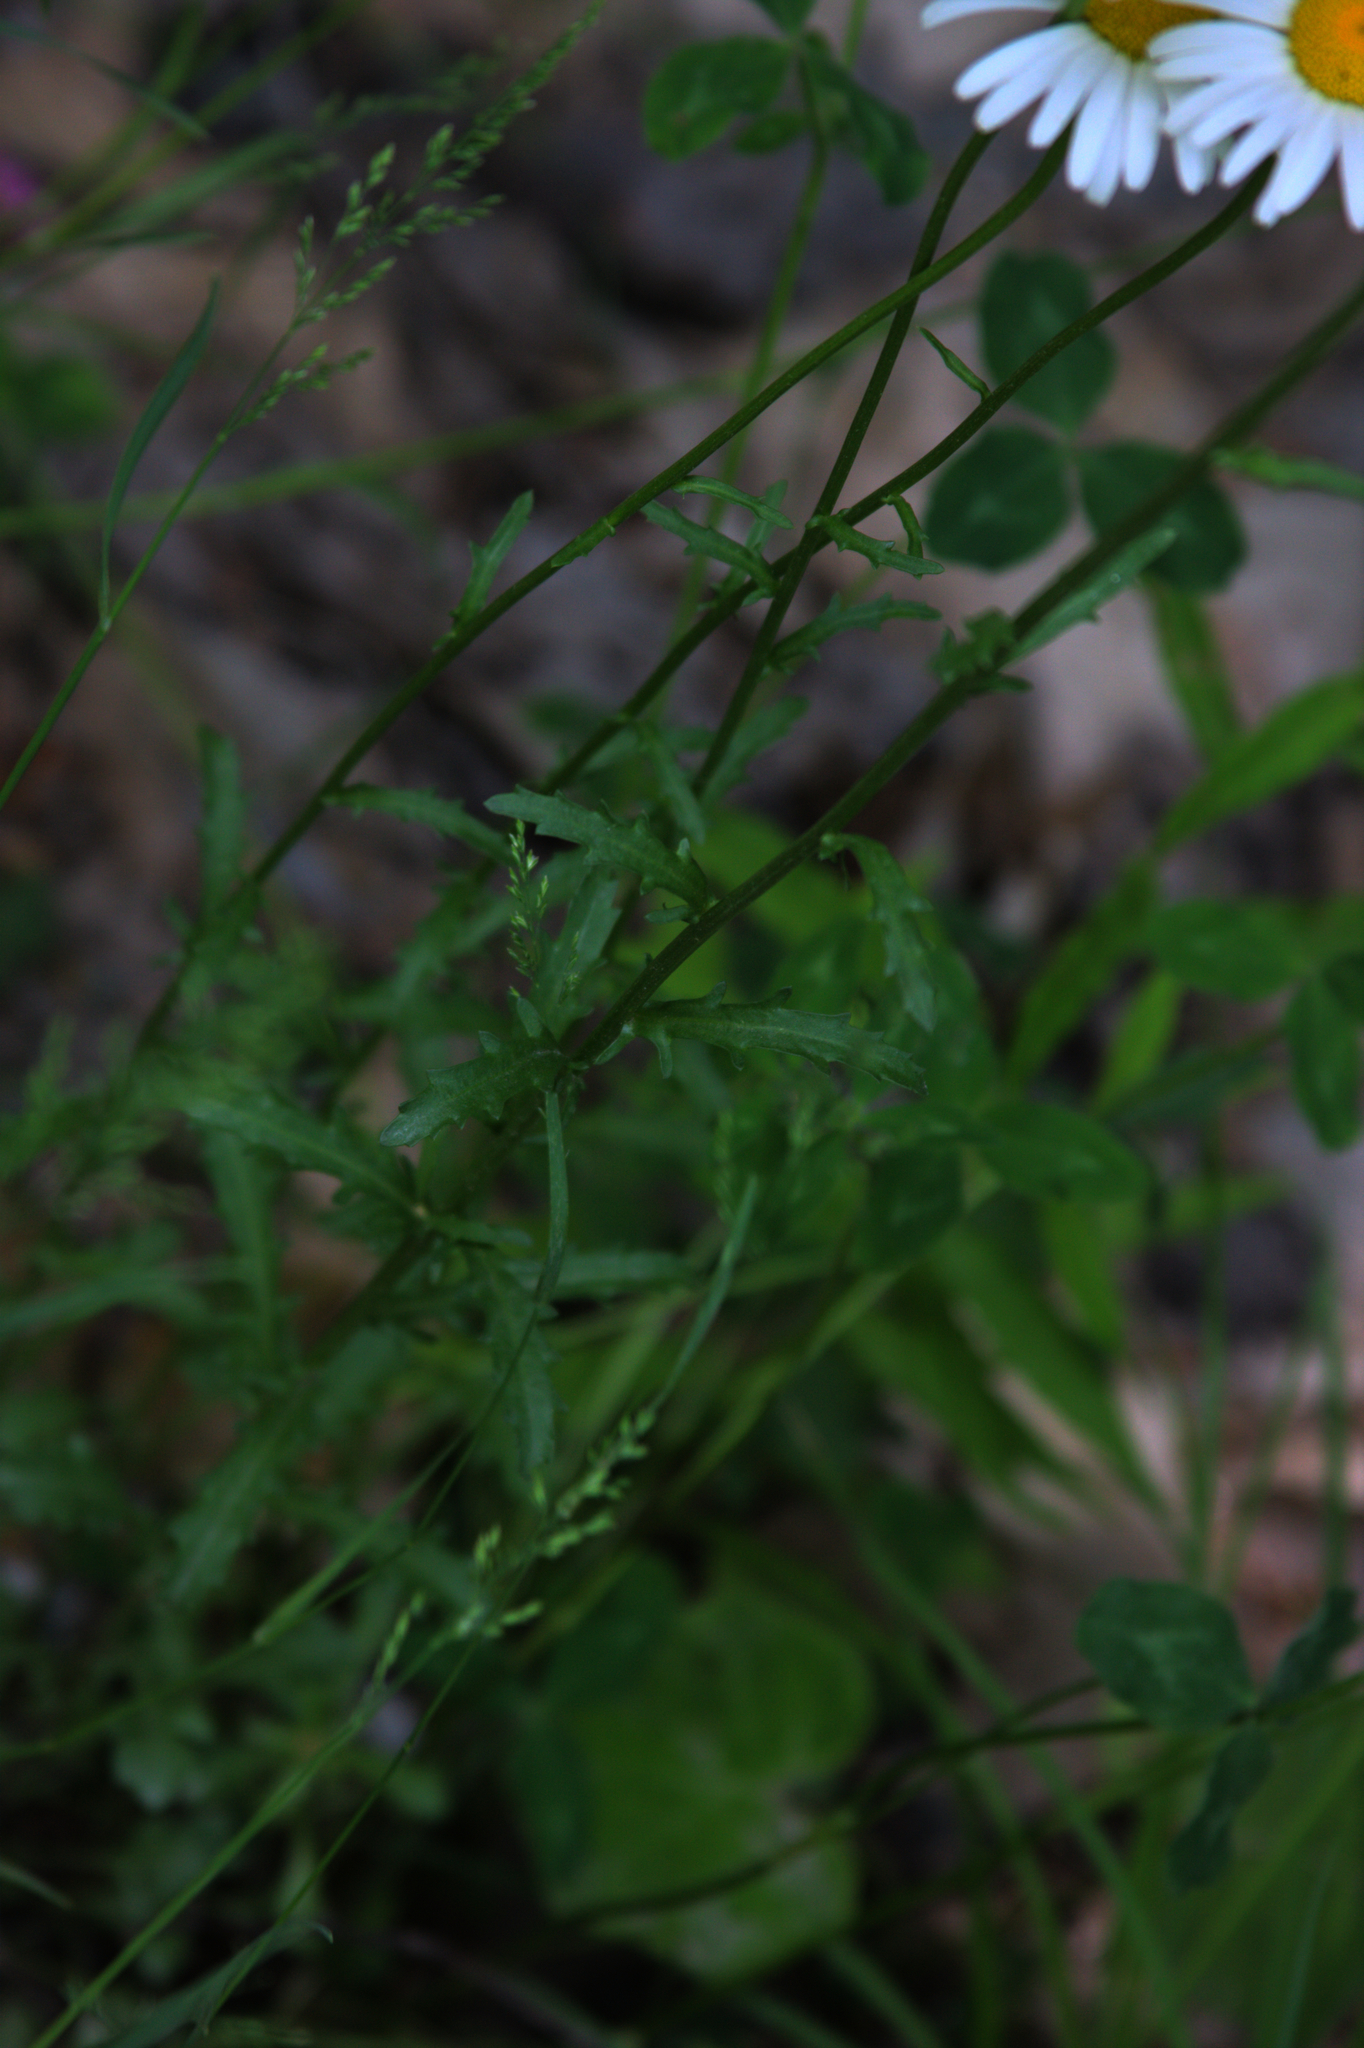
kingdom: Plantae
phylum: Tracheophyta
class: Magnoliopsida
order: Asterales
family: Asteraceae
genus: Leucanthemum
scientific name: Leucanthemum vulgare
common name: Oxeye daisy
